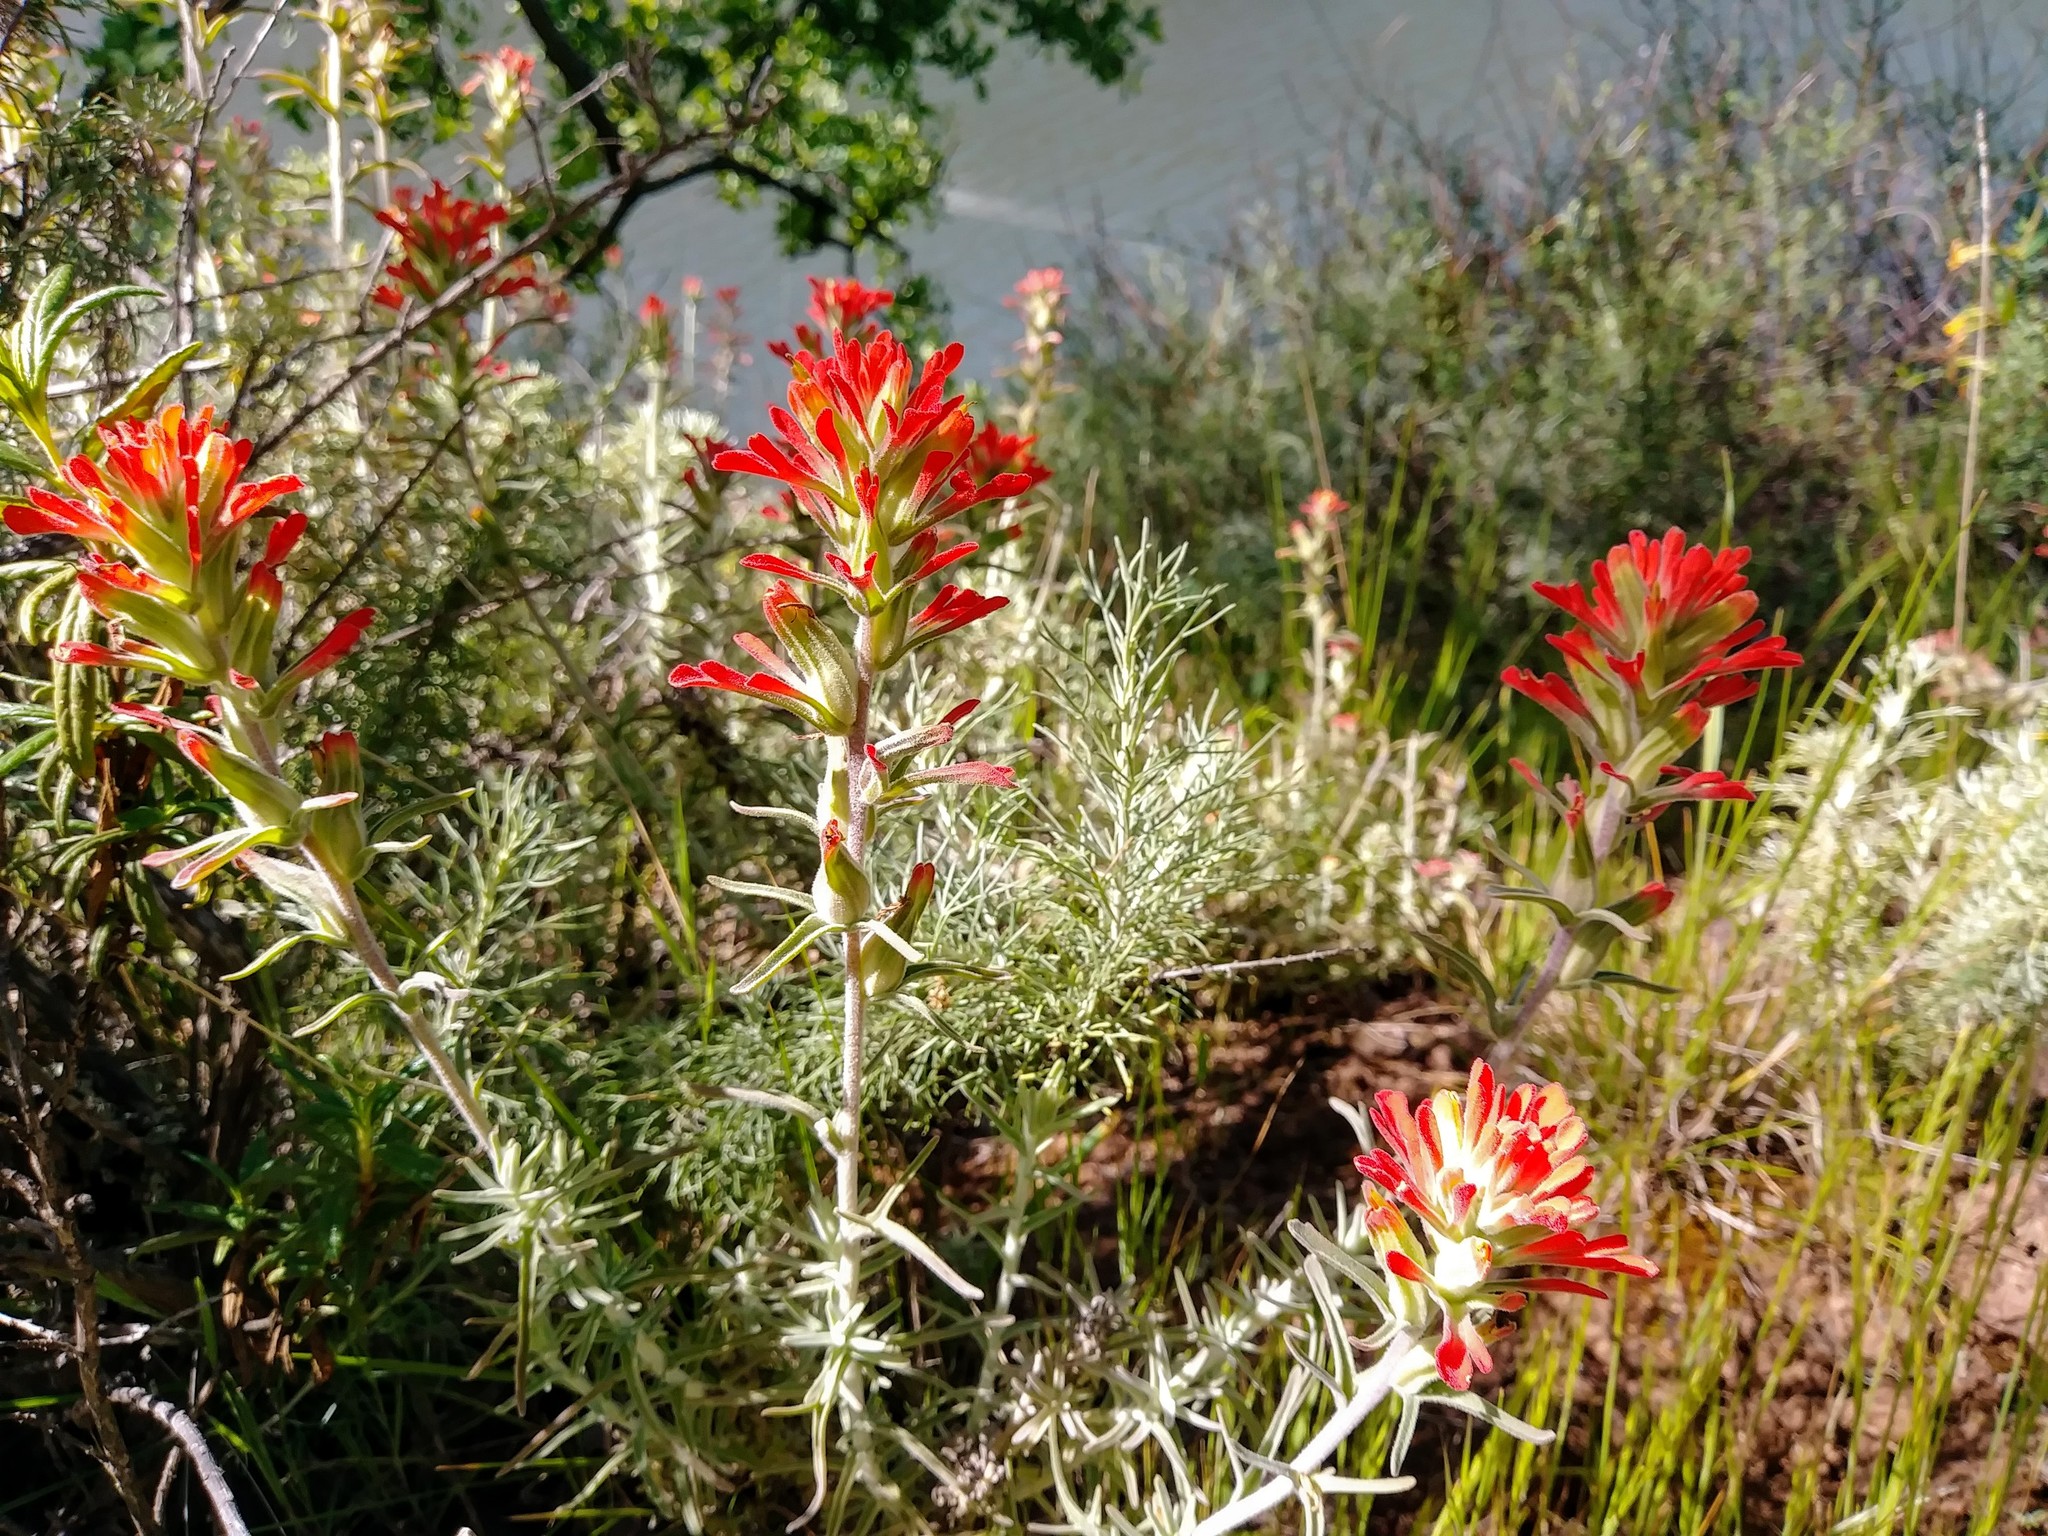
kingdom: Plantae
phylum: Tracheophyta
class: Magnoliopsida
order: Lamiales
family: Orobanchaceae
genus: Castilleja
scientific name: Castilleja foliolosa
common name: Woolly indian paintbrush
